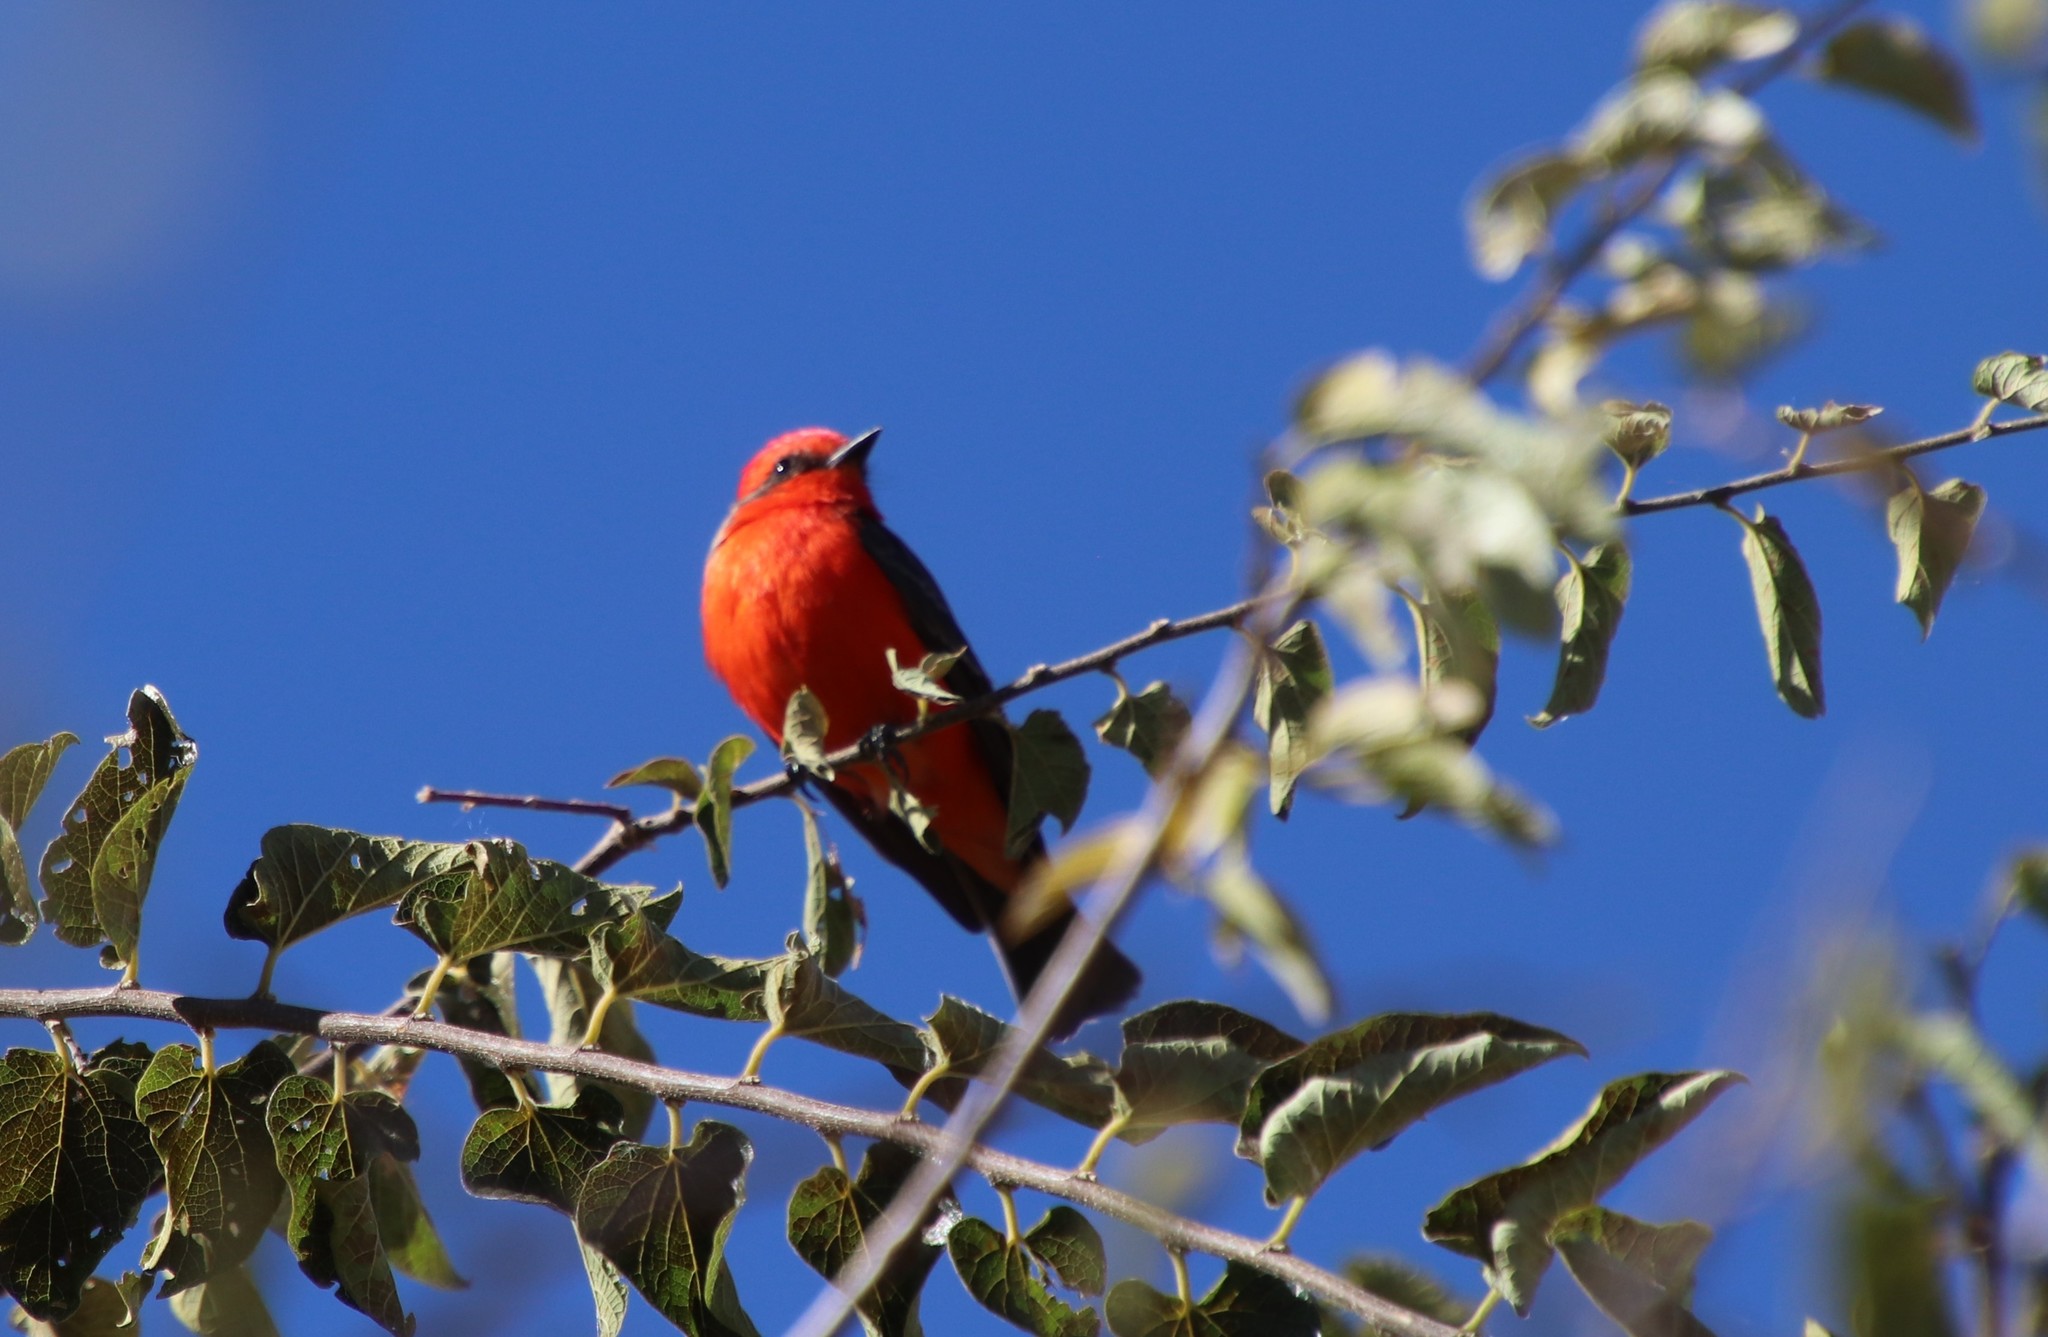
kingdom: Animalia
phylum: Chordata
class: Aves
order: Passeriformes
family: Tyrannidae
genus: Pyrocephalus
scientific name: Pyrocephalus rubinus
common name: Vermilion flycatcher
